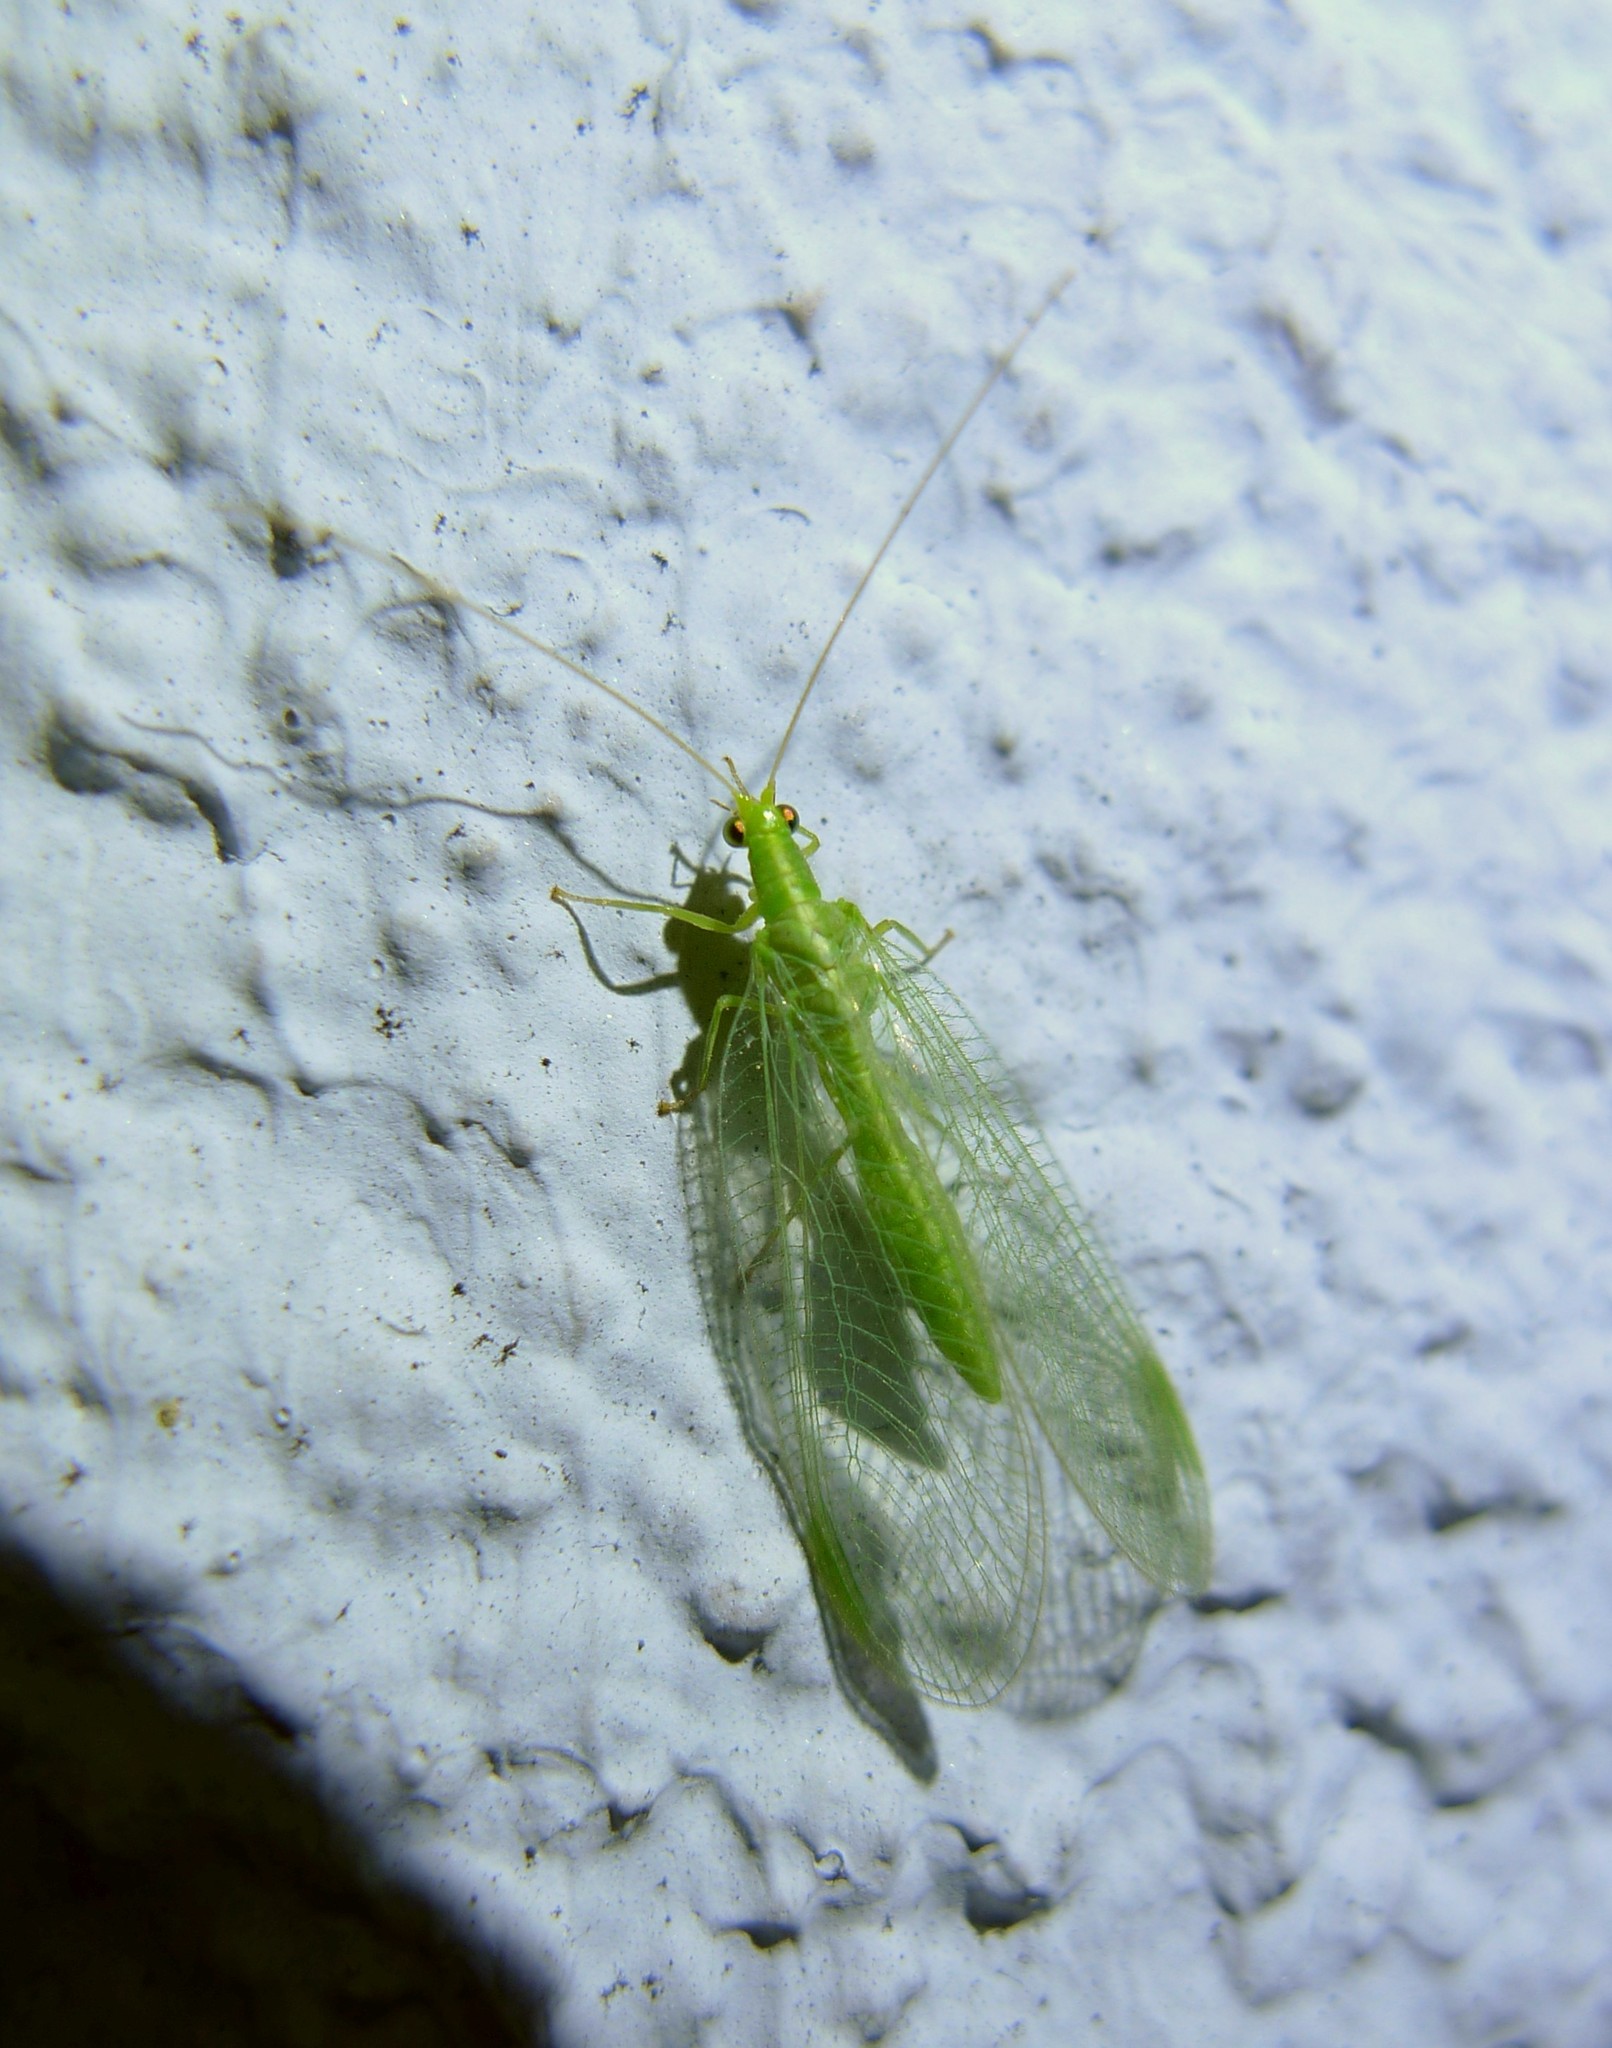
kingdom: Animalia
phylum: Arthropoda
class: Insecta
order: Neuroptera
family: Chrysopidae
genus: Chrysoperla
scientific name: Chrysoperla
